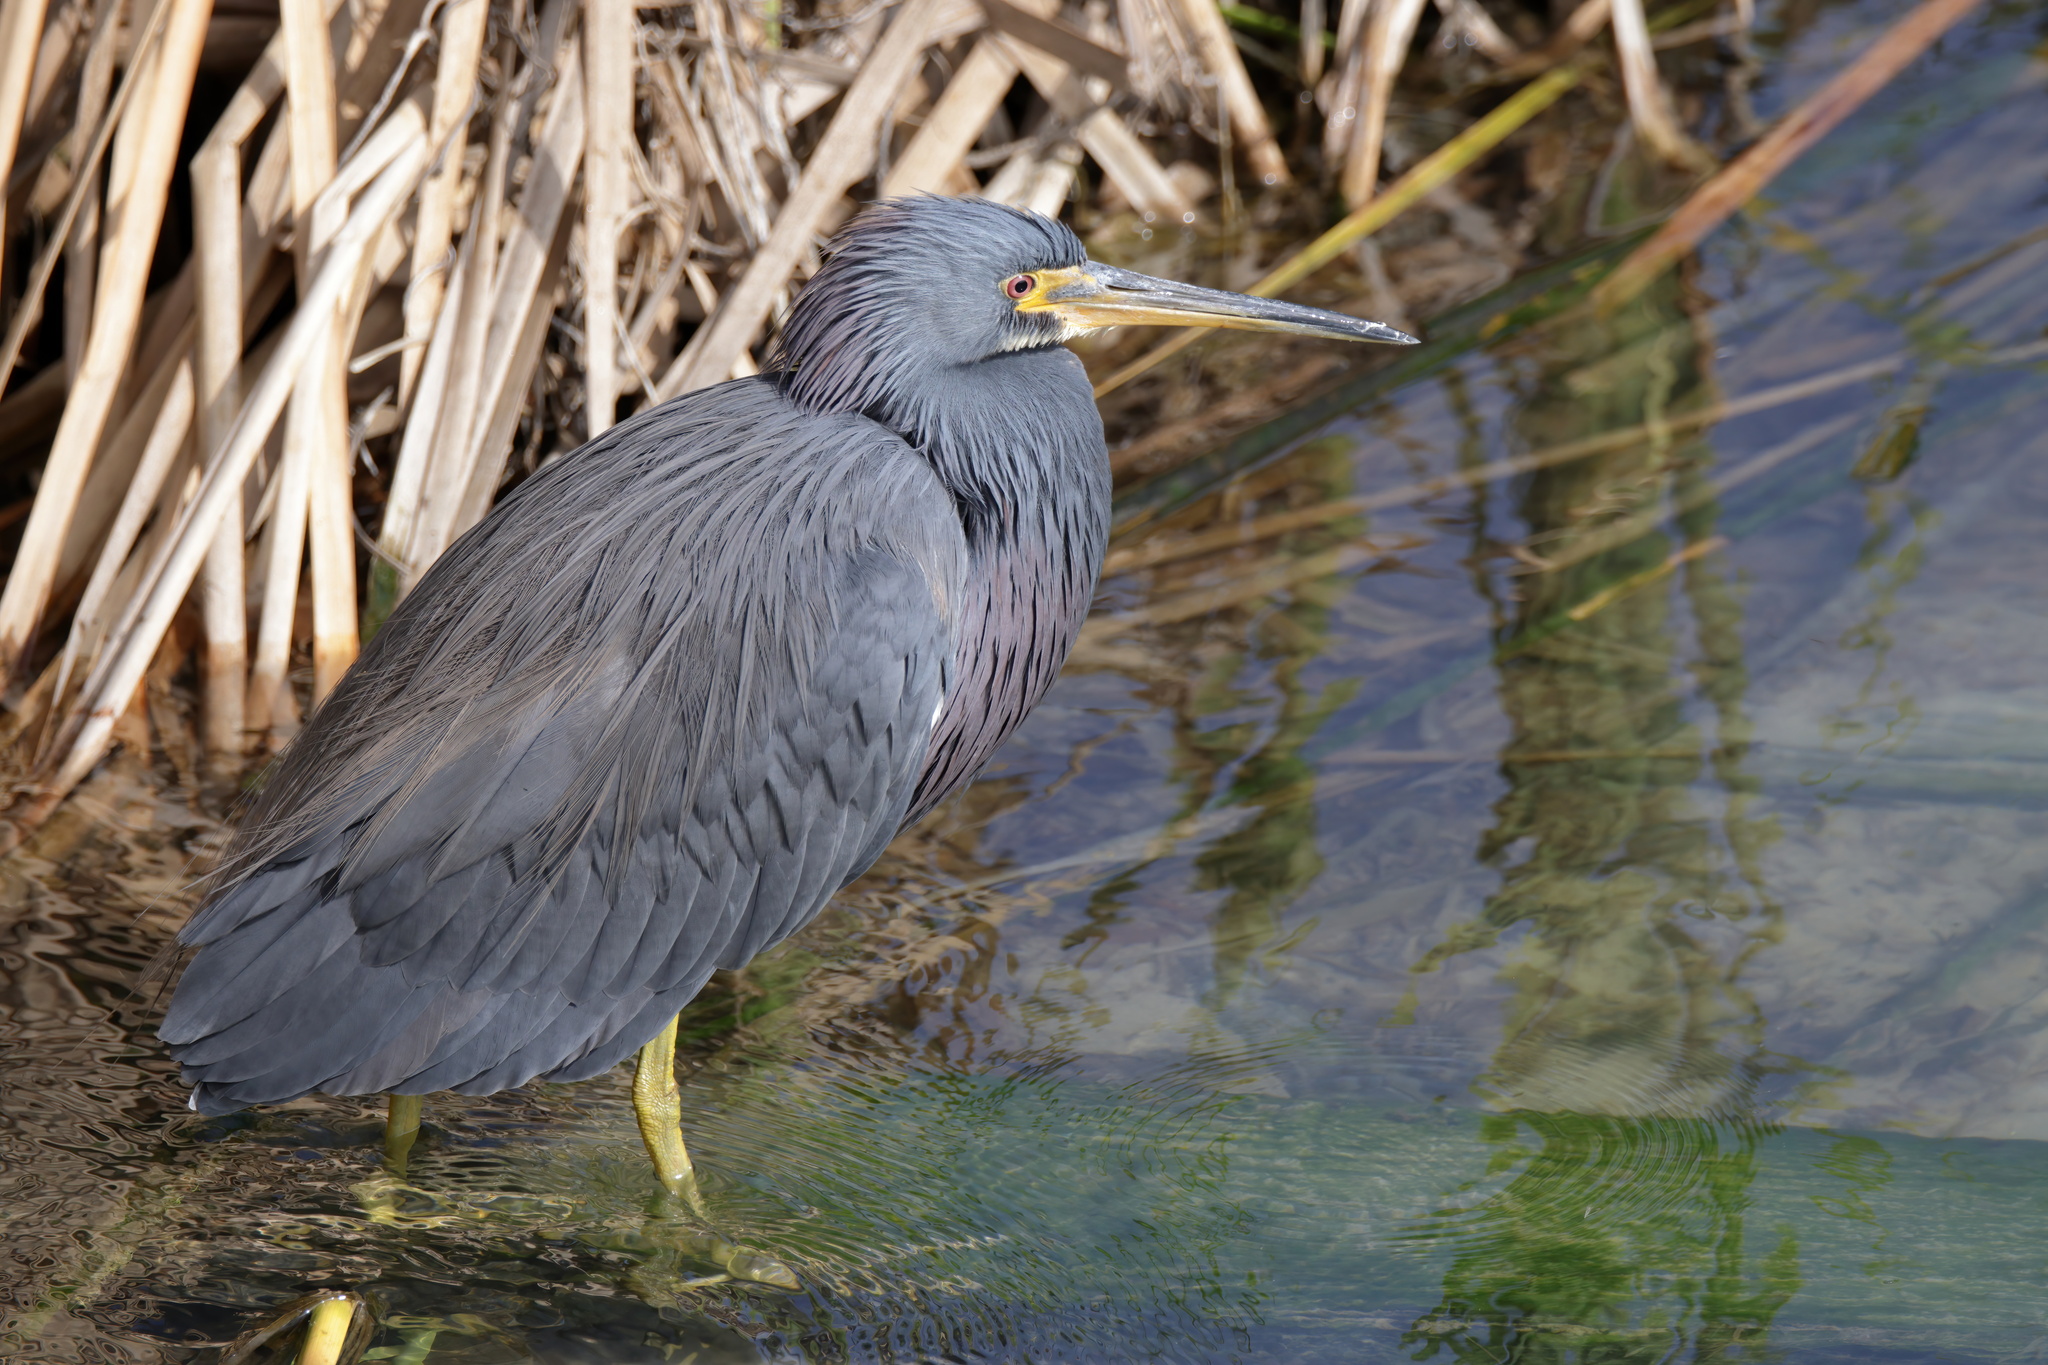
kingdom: Animalia
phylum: Chordata
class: Aves
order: Pelecaniformes
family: Ardeidae
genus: Egretta
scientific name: Egretta tricolor
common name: Tricolored heron
